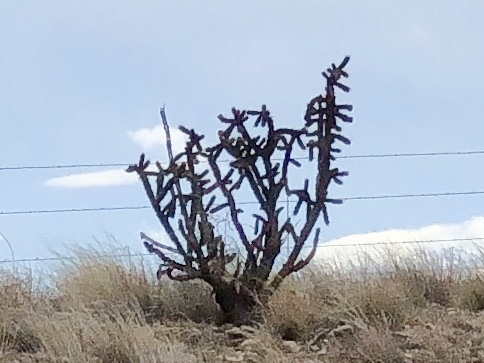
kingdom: Plantae
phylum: Tracheophyta
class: Magnoliopsida
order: Caryophyllales
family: Cactaceae
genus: Cylindropuntia
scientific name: Cylindropuntia imbricata
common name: Candelabrum cactus
